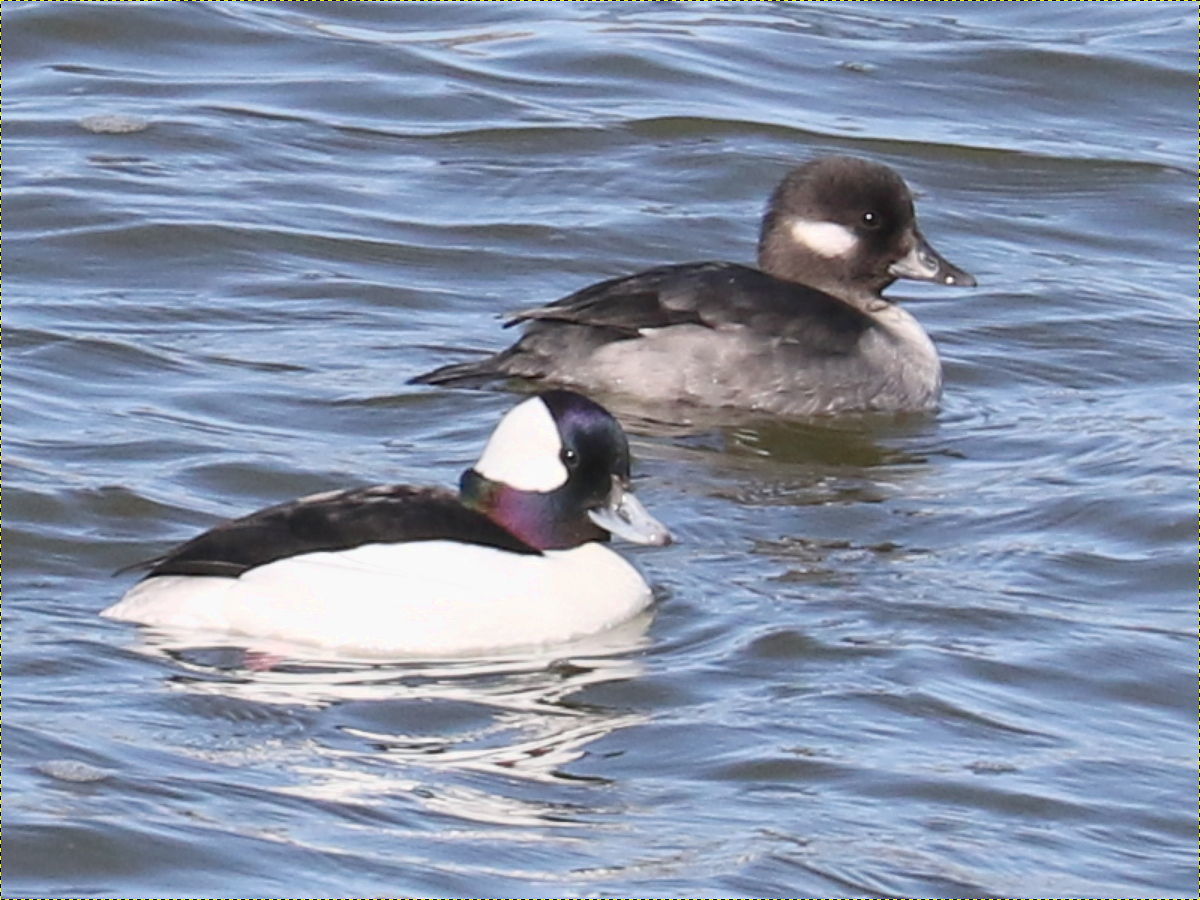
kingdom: Animalia
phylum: Chordata
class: Aves
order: Anseriformes
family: Anatidae
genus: Bucephala
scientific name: Bucephala albeola
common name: Bufflehead
